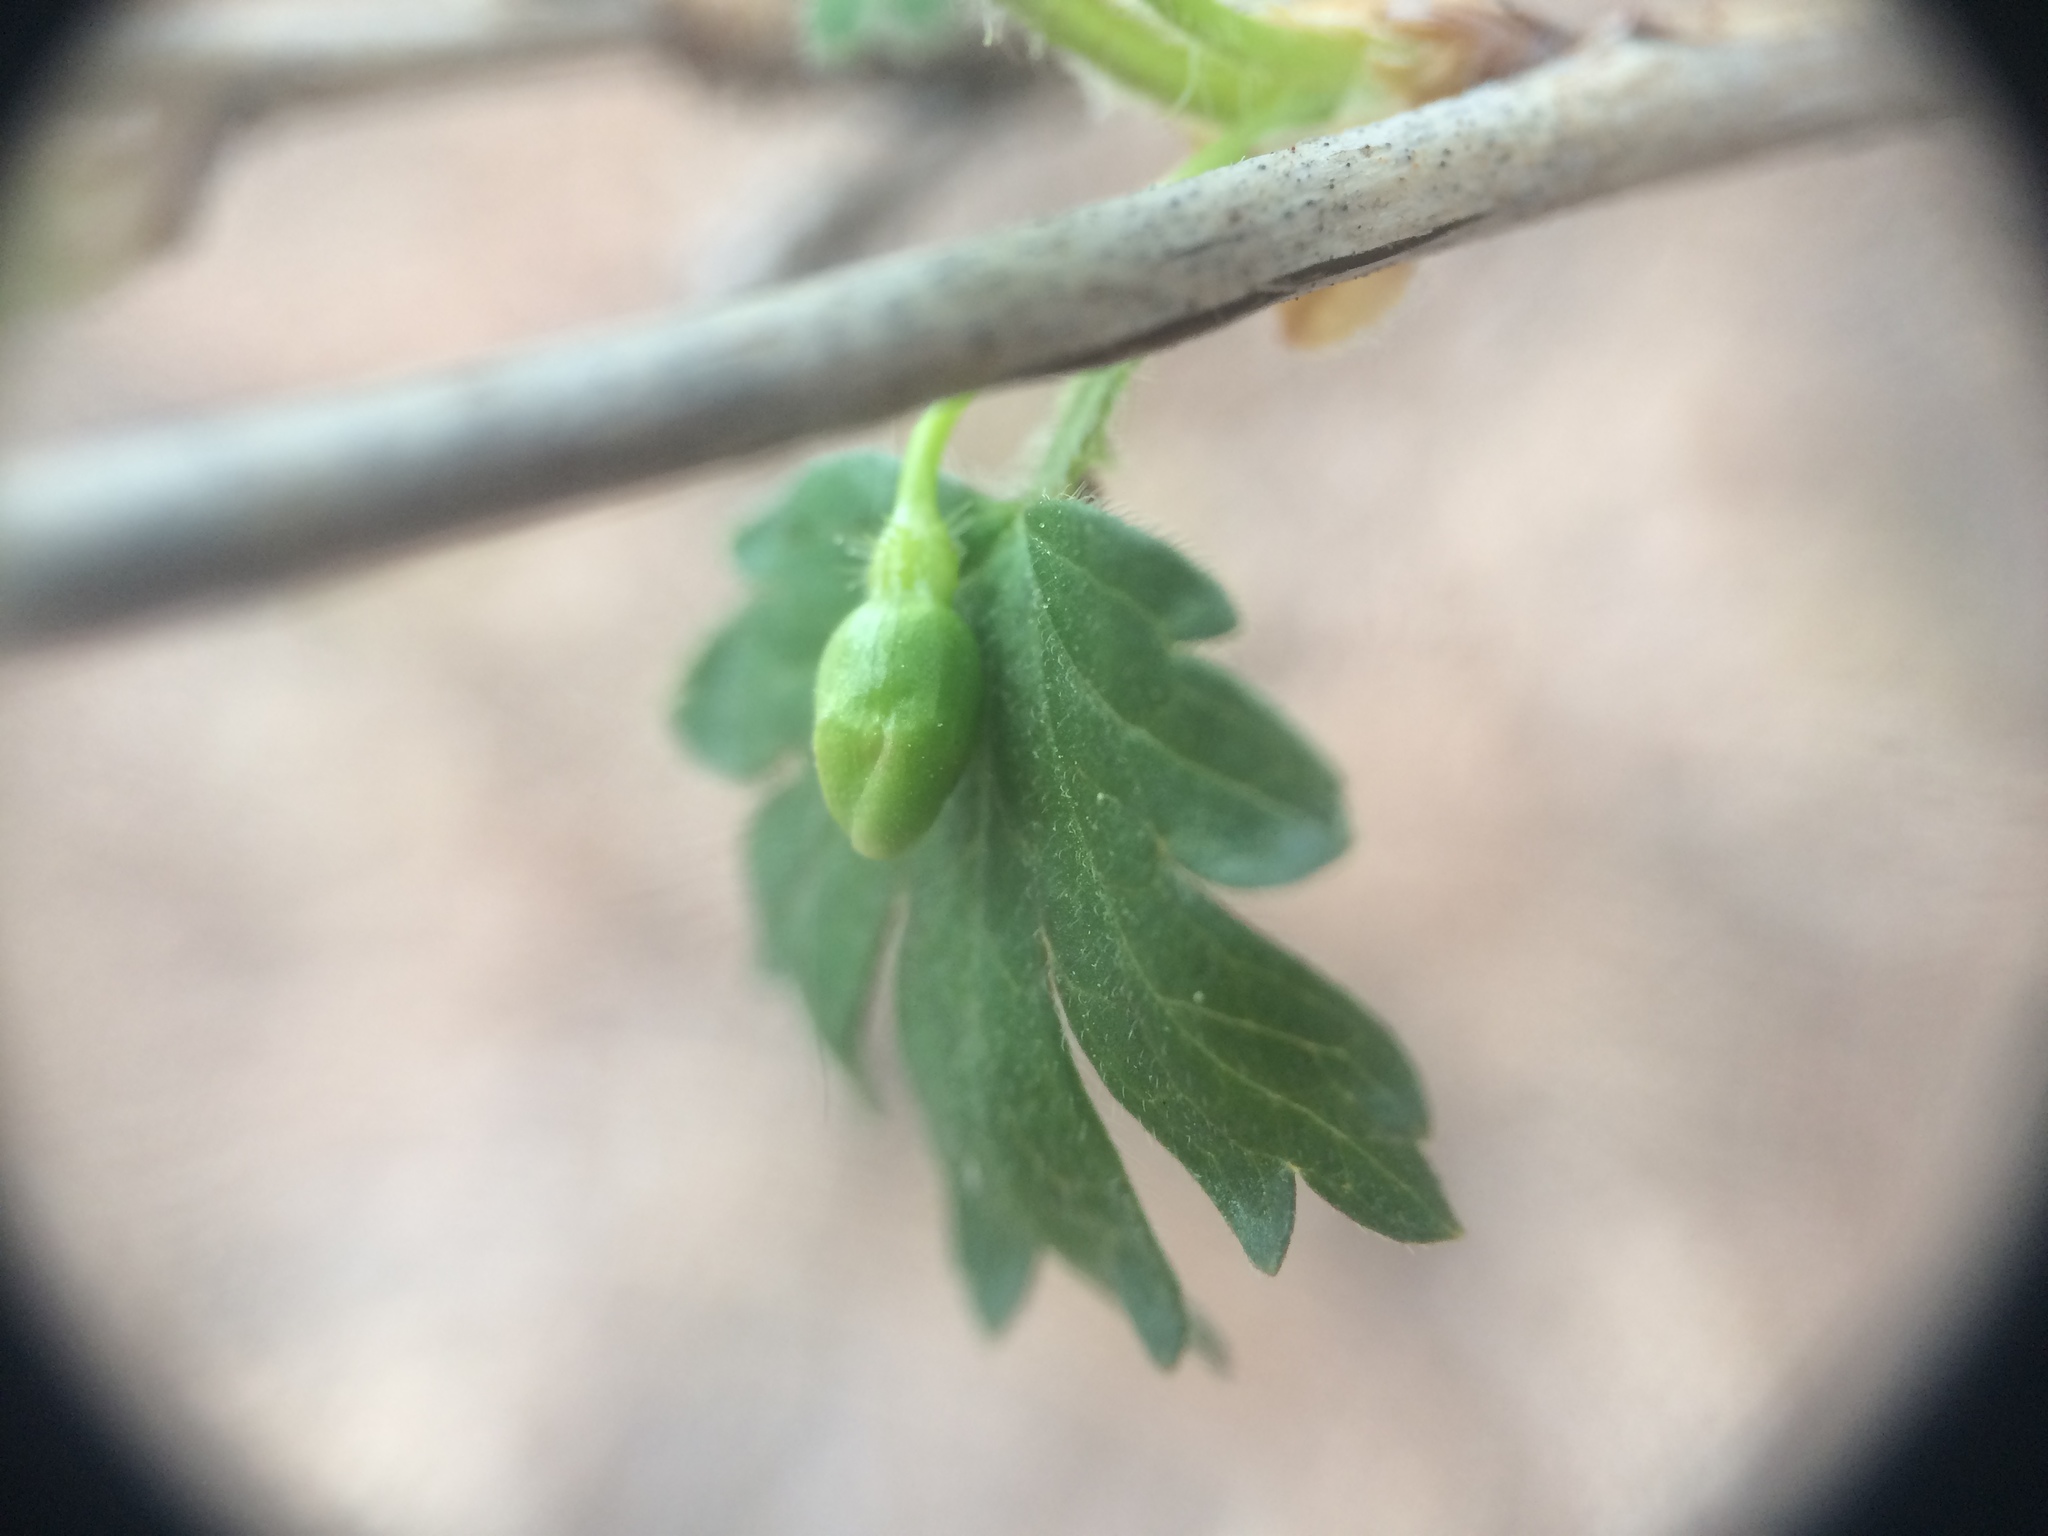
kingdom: Plantae
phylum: Tracheophyta
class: Magnoliopsida
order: Saxifragales
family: Grossulariaceae
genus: Ribes
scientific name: Ribes cynosbati
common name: American gooseberry
